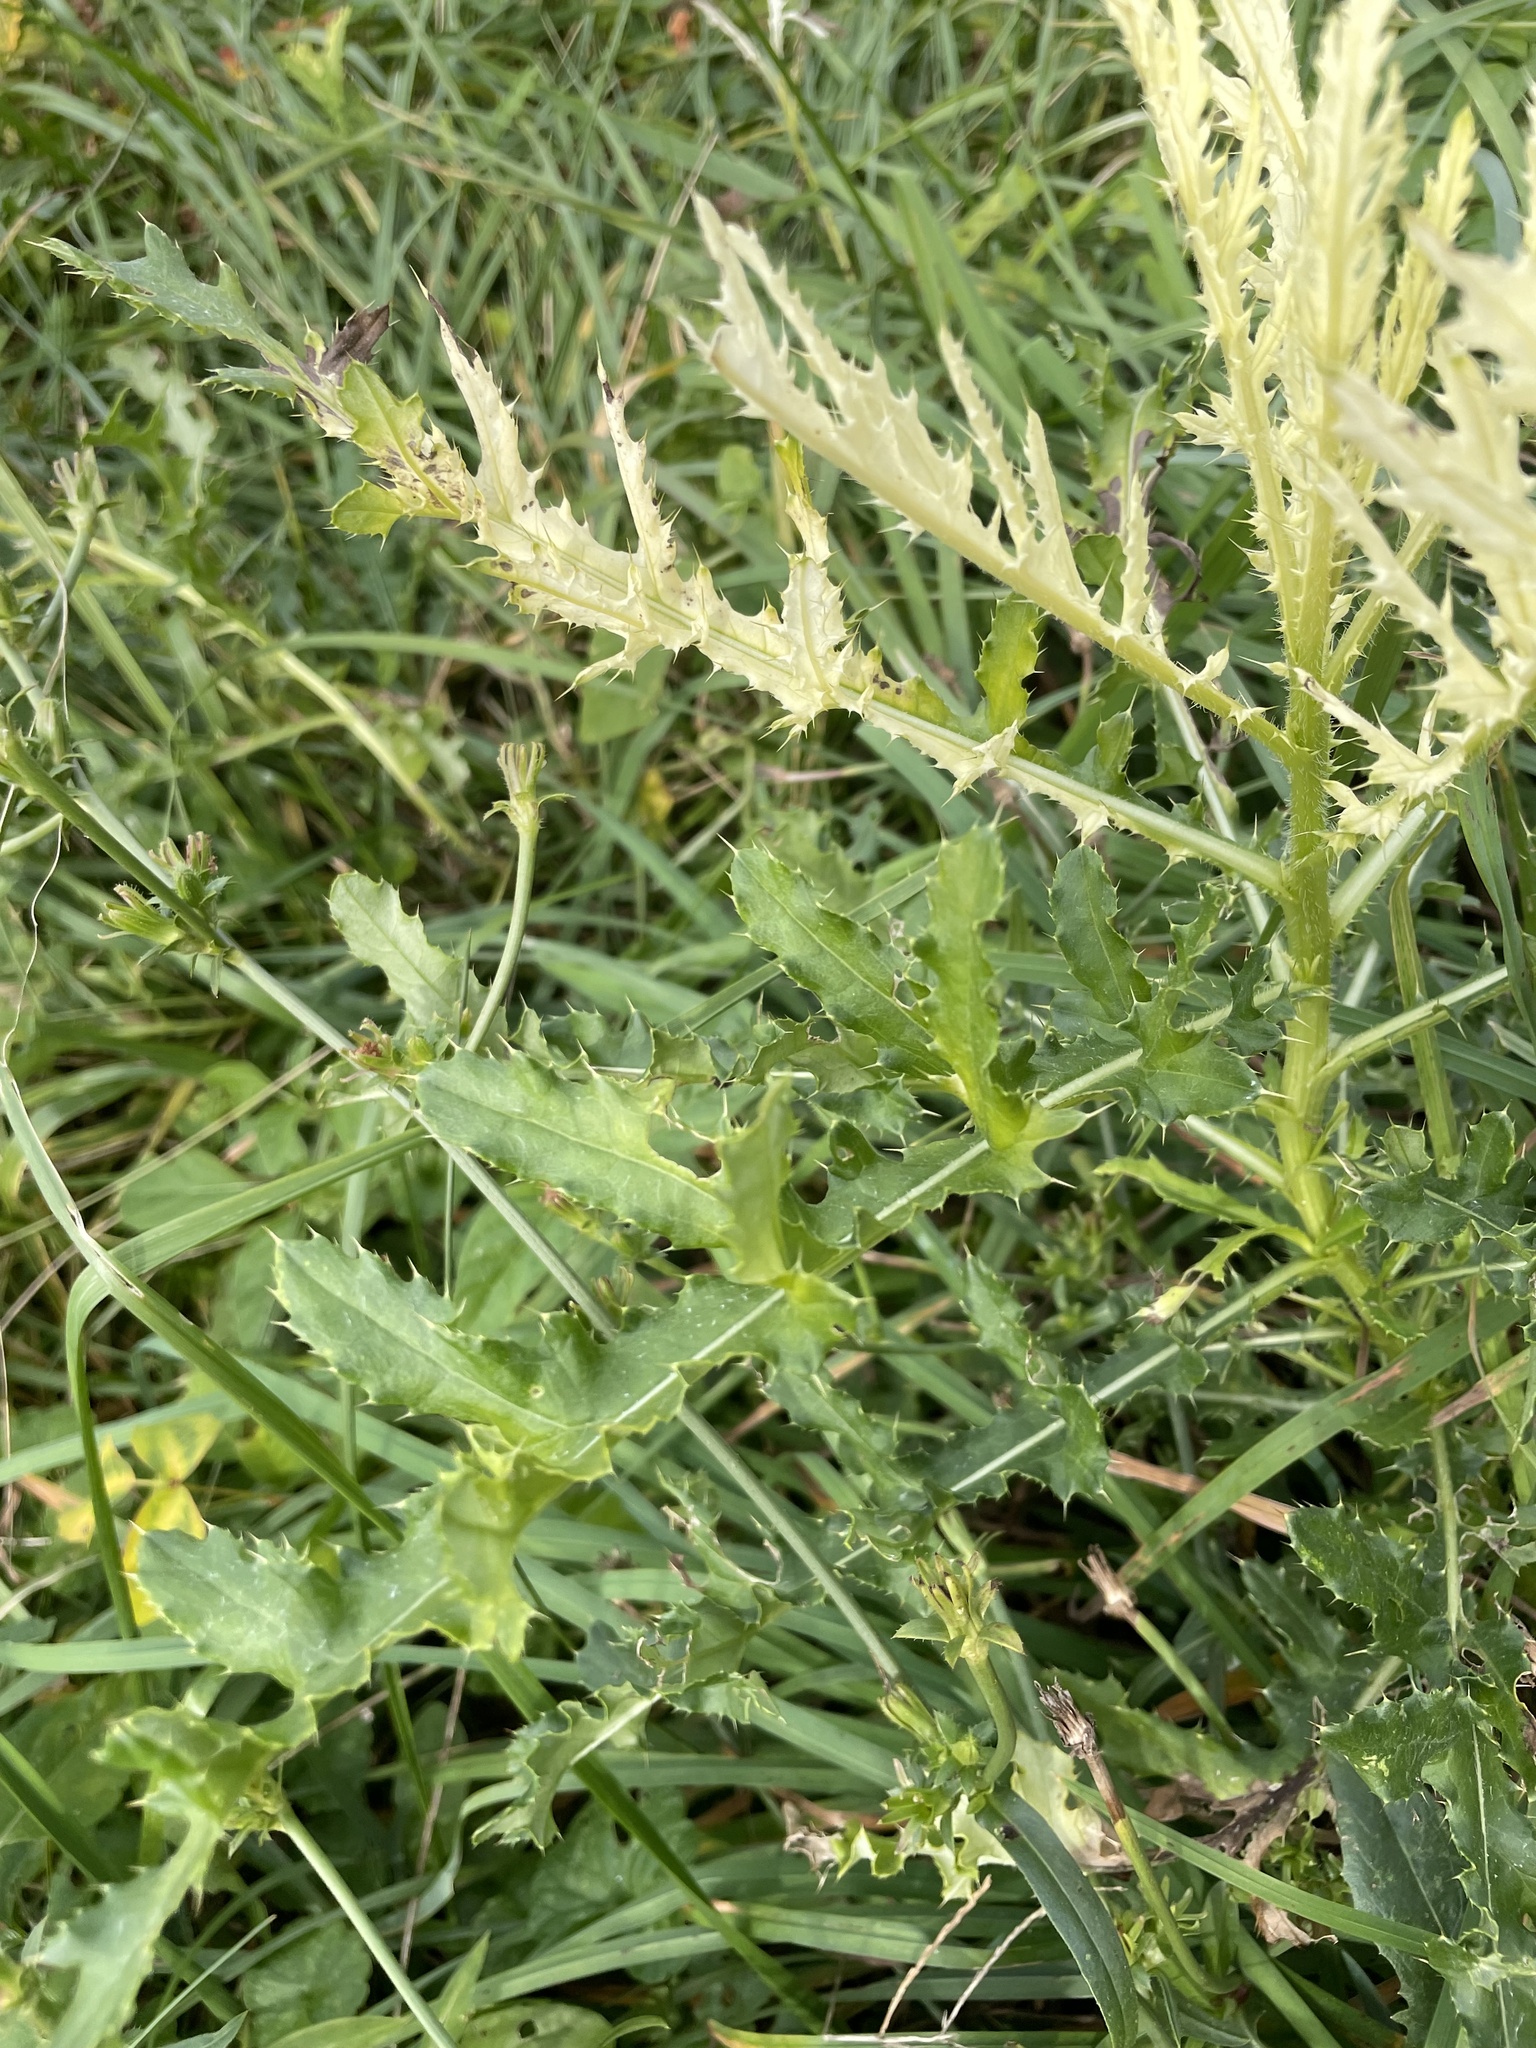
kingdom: Bacteria
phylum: Proteobacteria
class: Gammaproteobacteria
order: Pseudomonadales
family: Pseudomonadaceae
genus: Pseudomonas
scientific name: Pseudomonas syringae
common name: Bacterial speck
